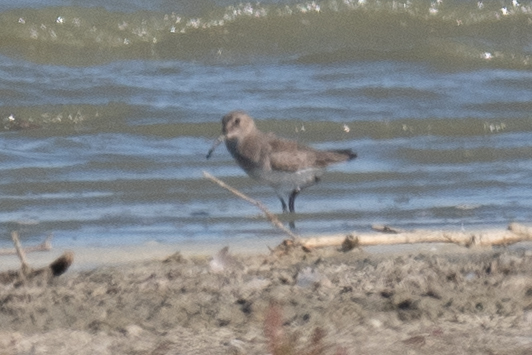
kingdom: Animalia
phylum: Chordata
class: Aves
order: Charadriiformes
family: Scolopacidae
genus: Calidris
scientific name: Calidris alpina
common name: Dunlin
